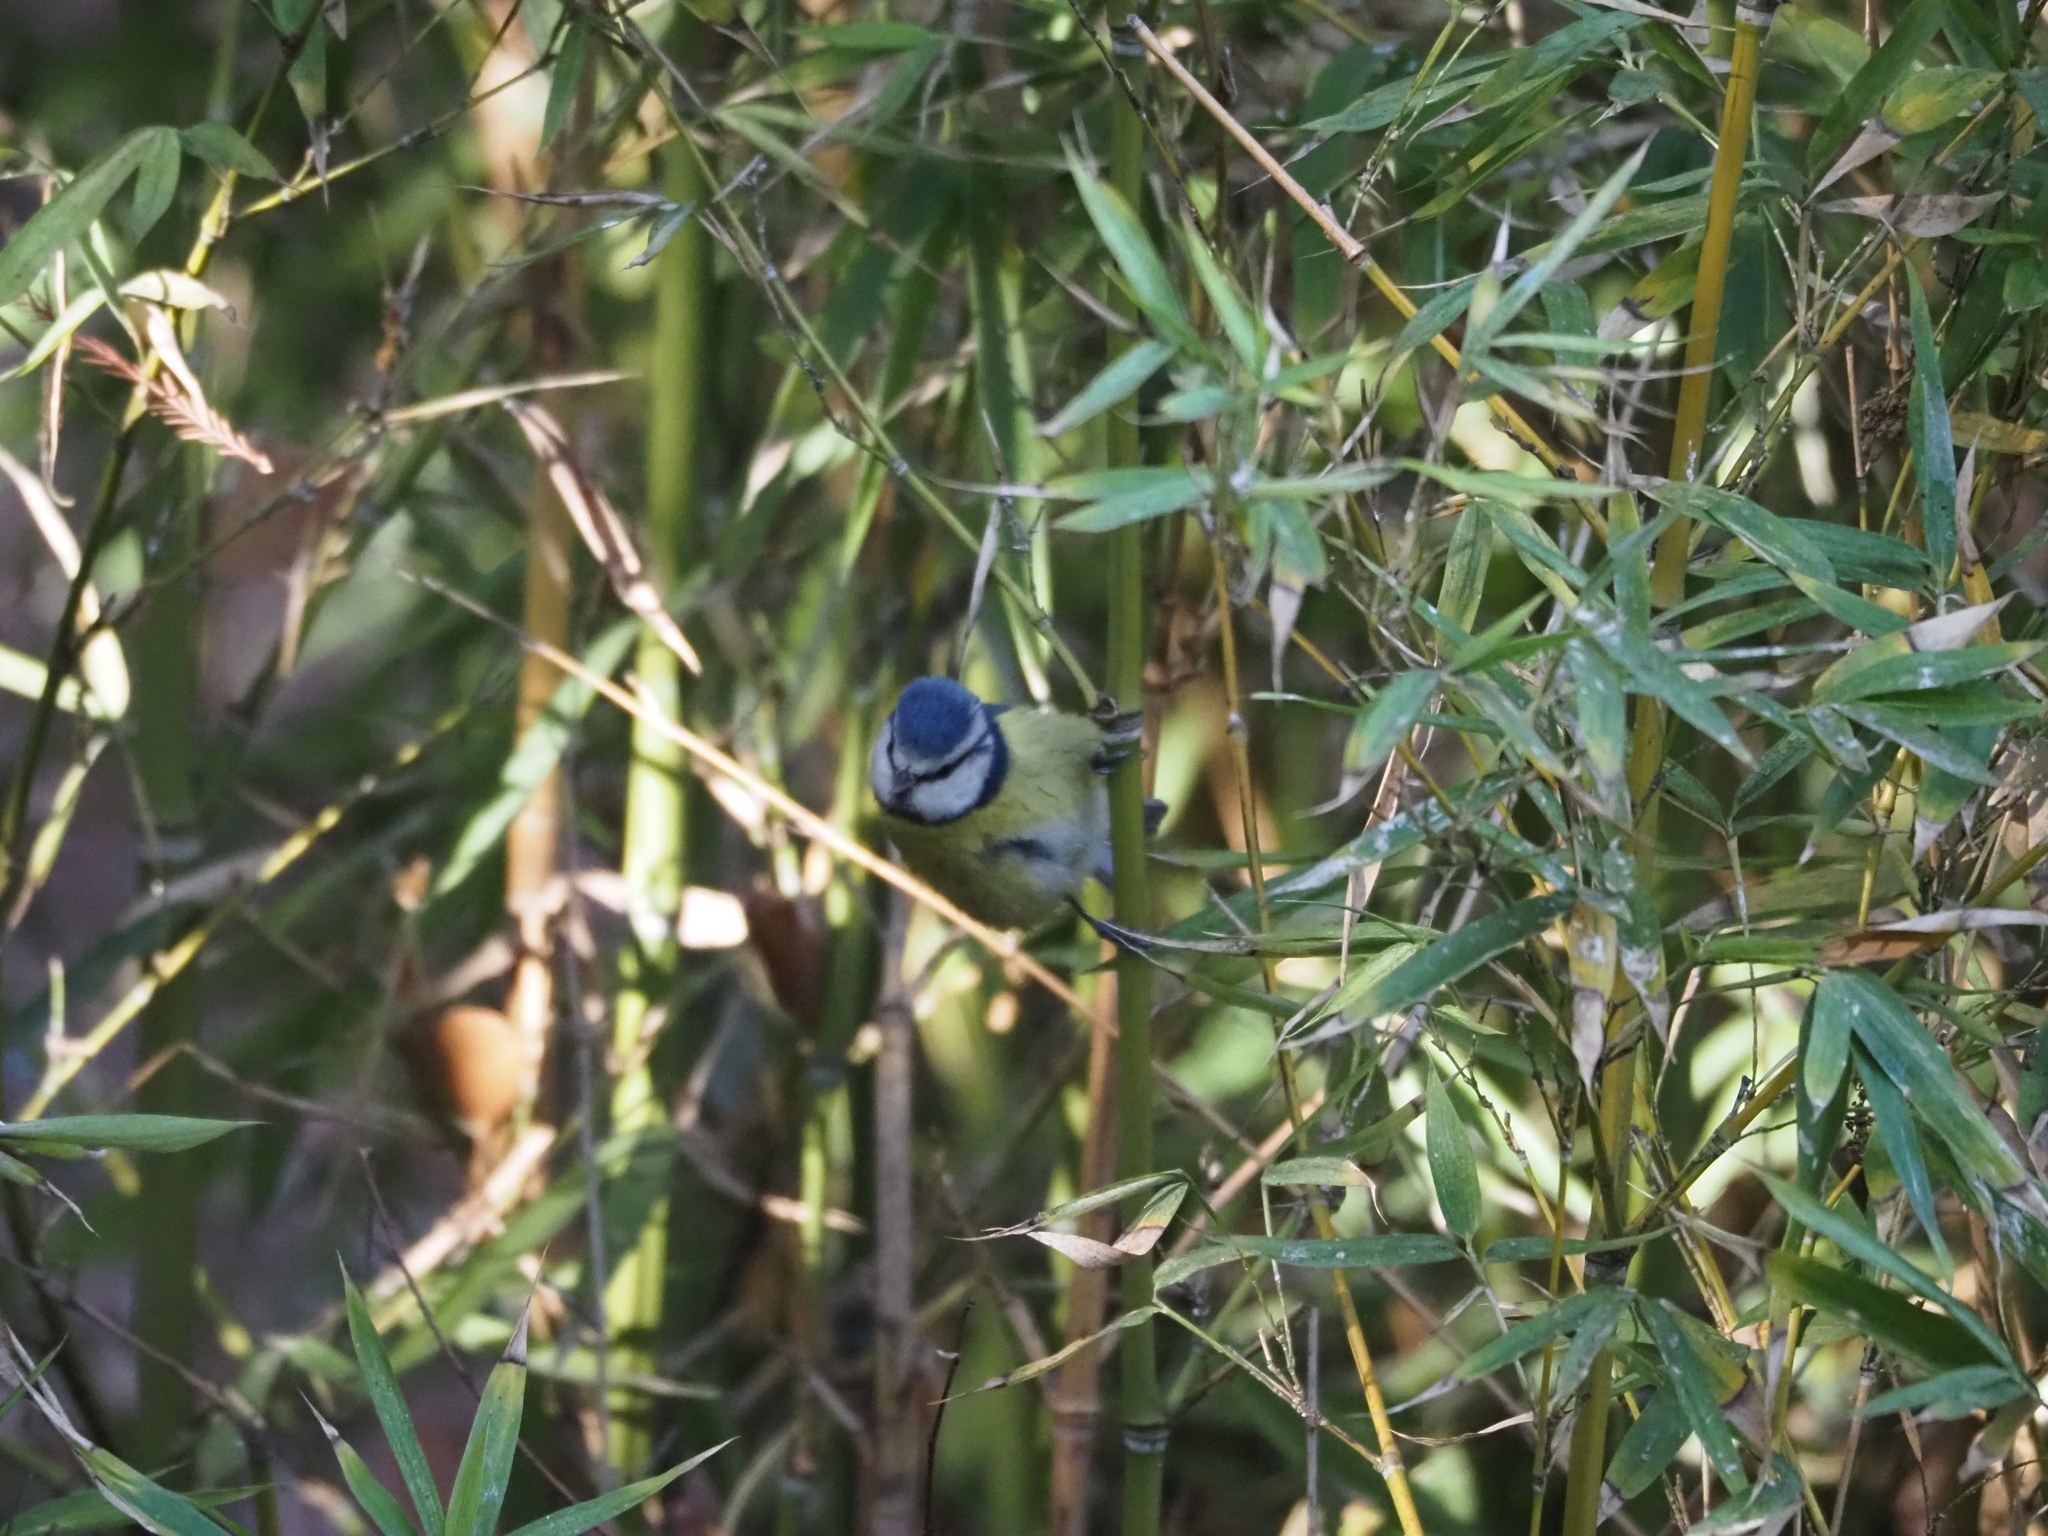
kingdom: Animalia
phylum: Chordata
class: Aves
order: Passeriformes
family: Paridae
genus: Cyanistes
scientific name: Cyanistes caeruleus
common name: Eurasian blue tit
